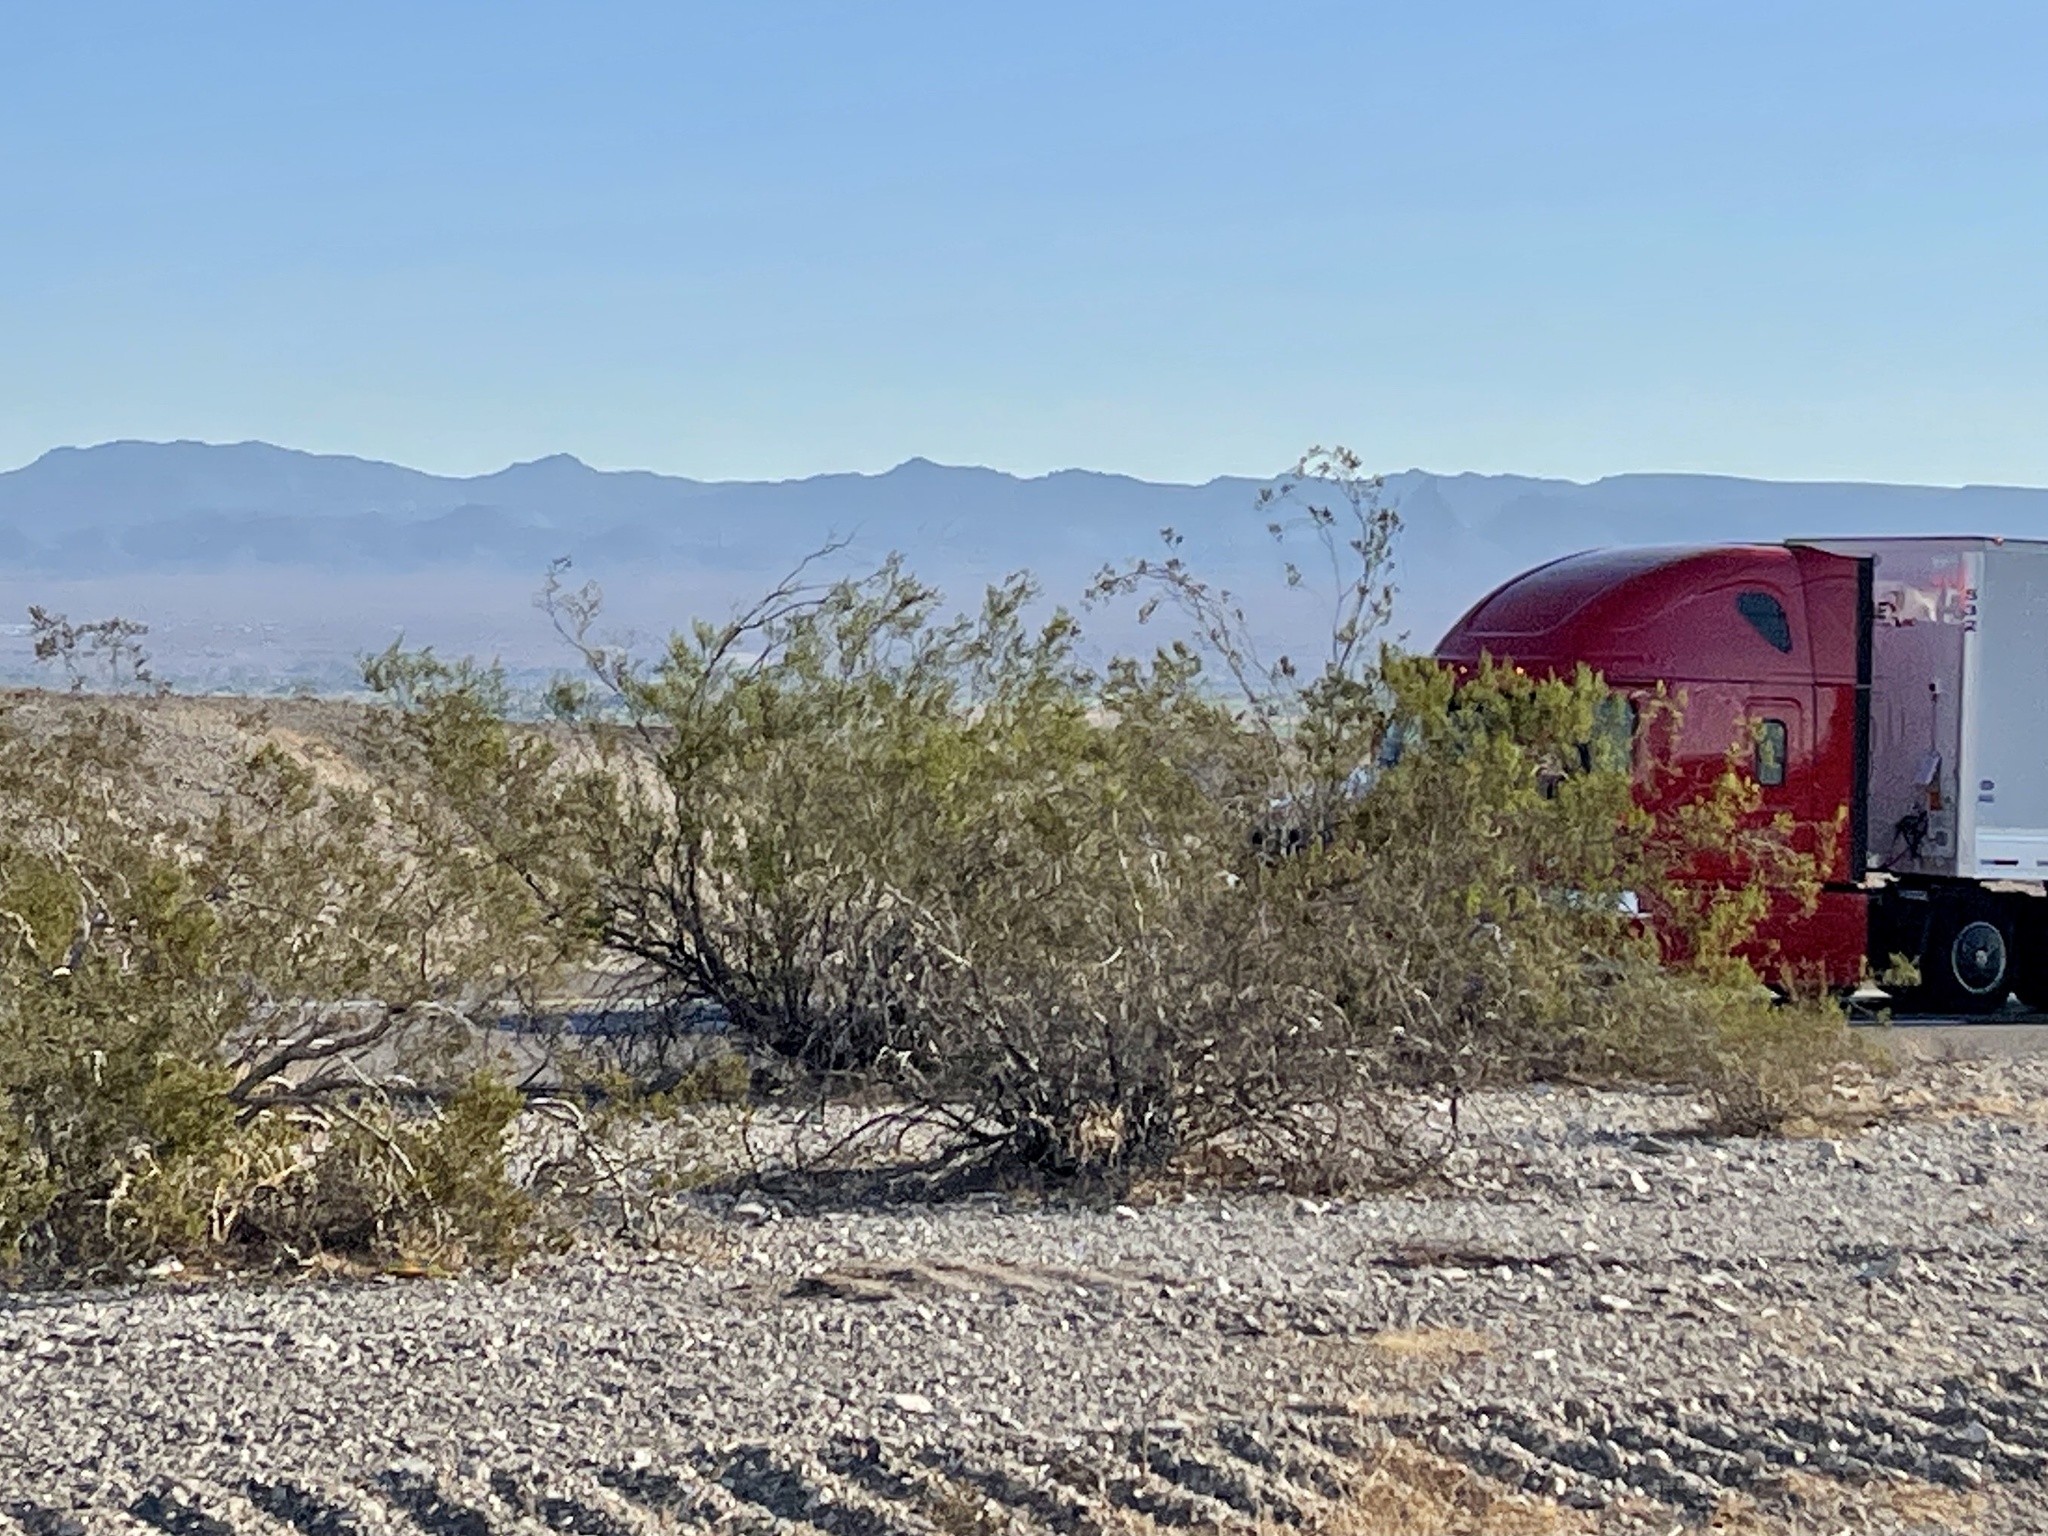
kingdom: Plantae
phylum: Tracheophyta
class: Magnoliopsida
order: Zygophyllales
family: Zygophyllaceae
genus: Larrea
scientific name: Larrea tridentata
